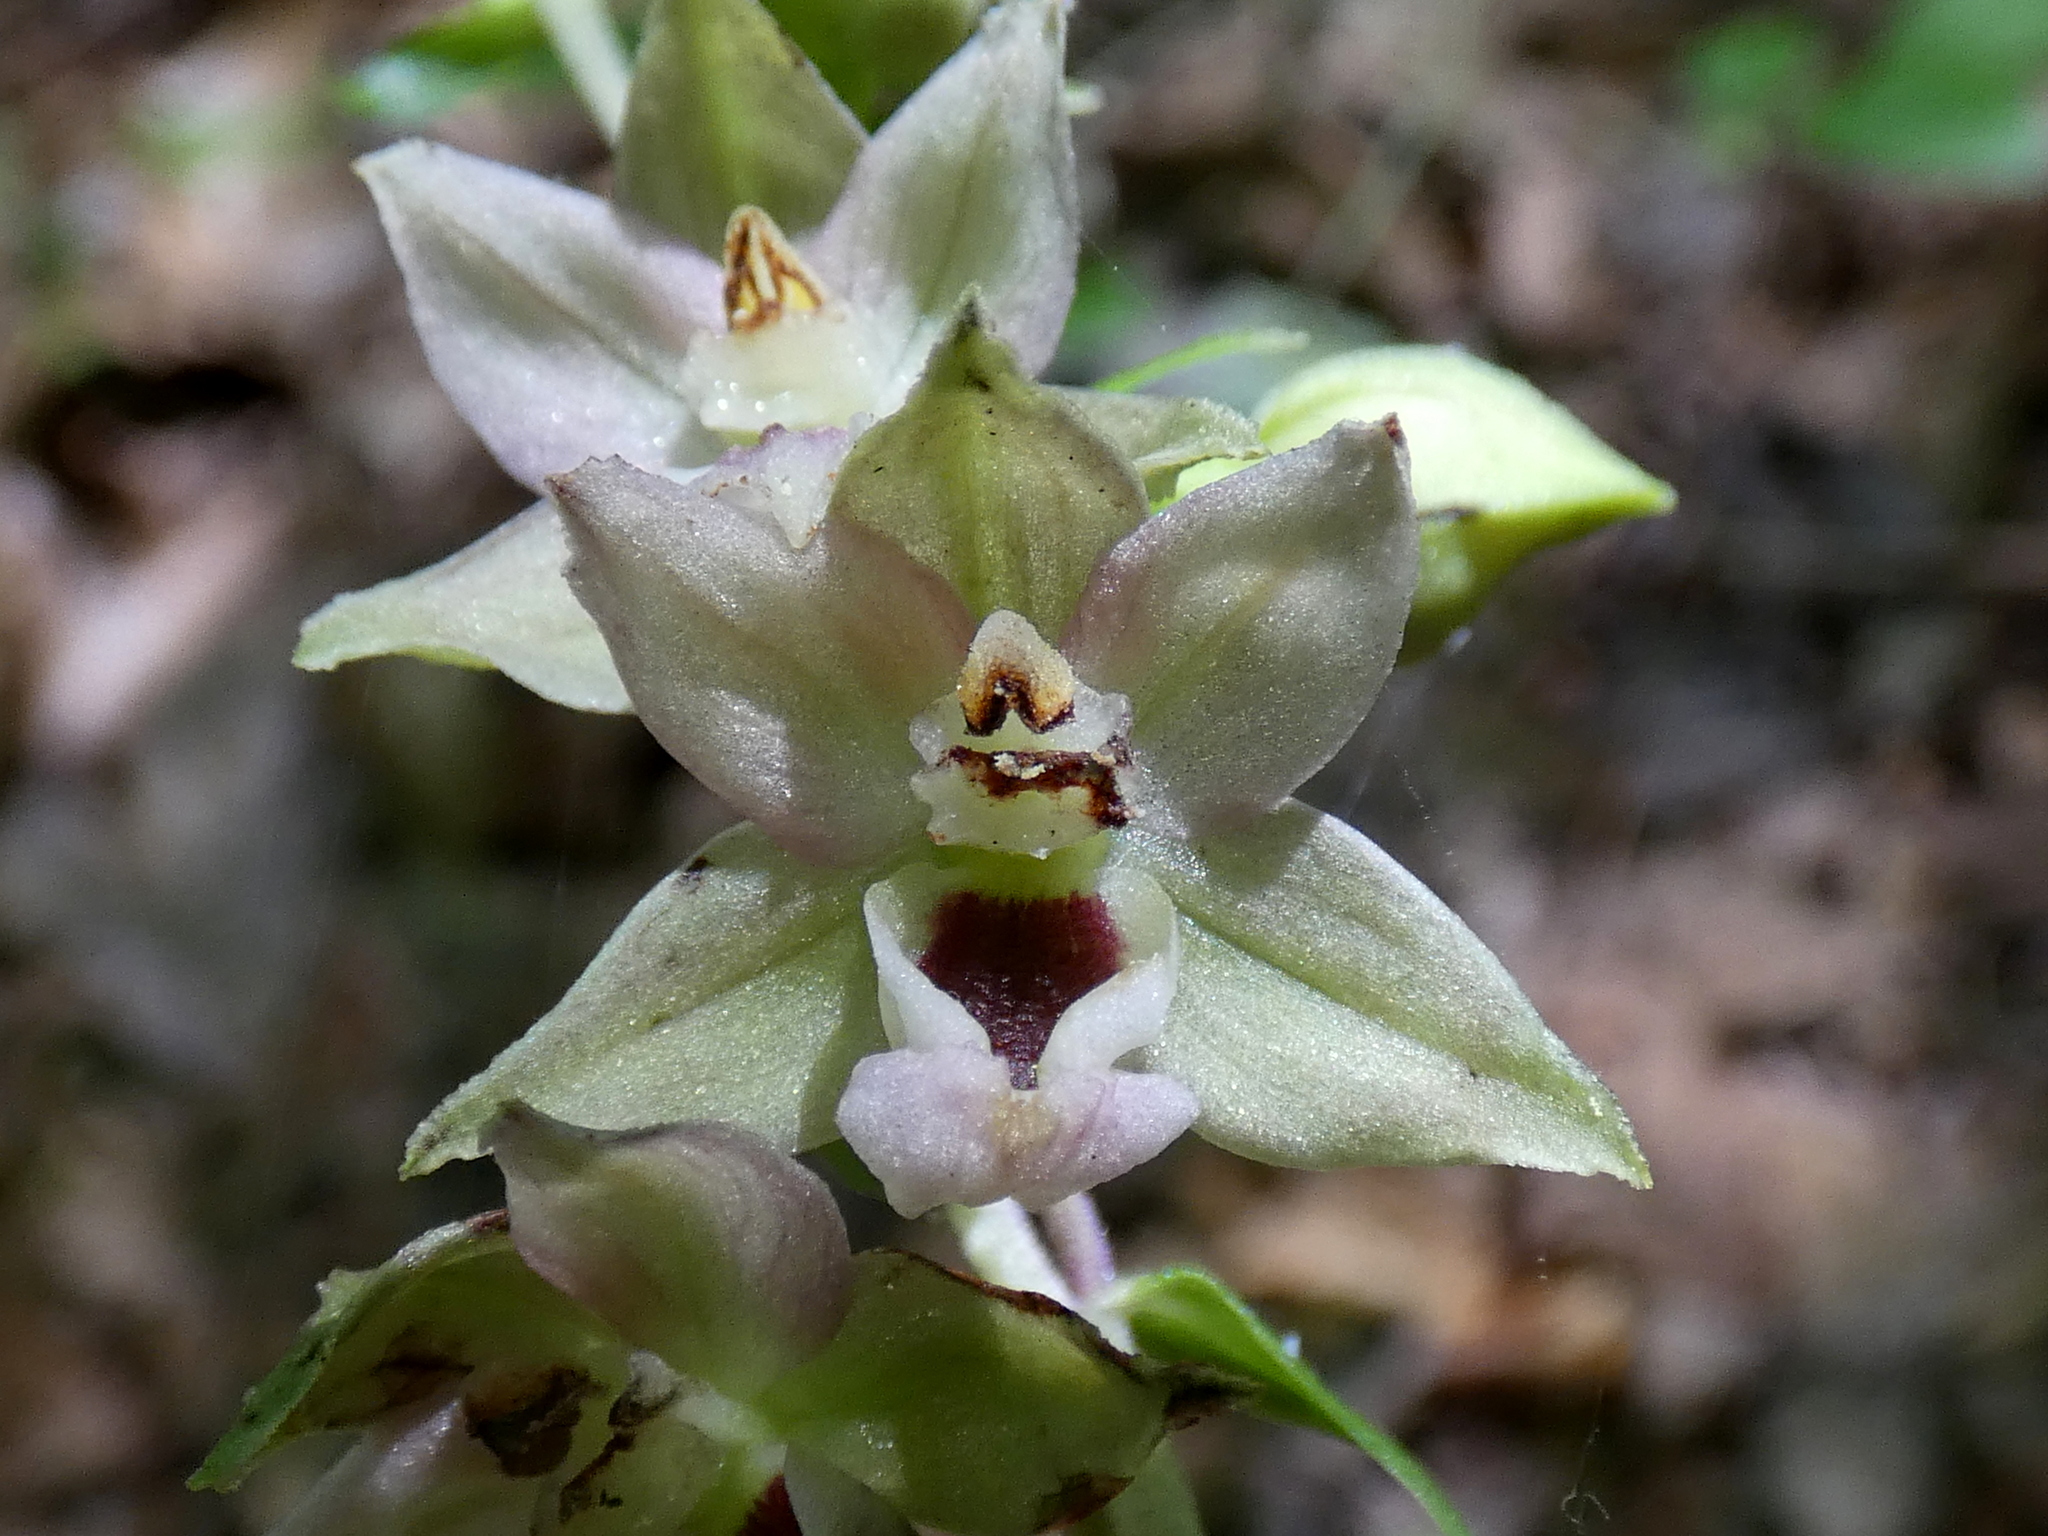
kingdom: Plantae
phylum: Tracheophyta
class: Liliopsida
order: Asparagales
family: Orchidaceae
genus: Epipactis
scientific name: Epipactis helleborine
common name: Broad-leaved helleborine
